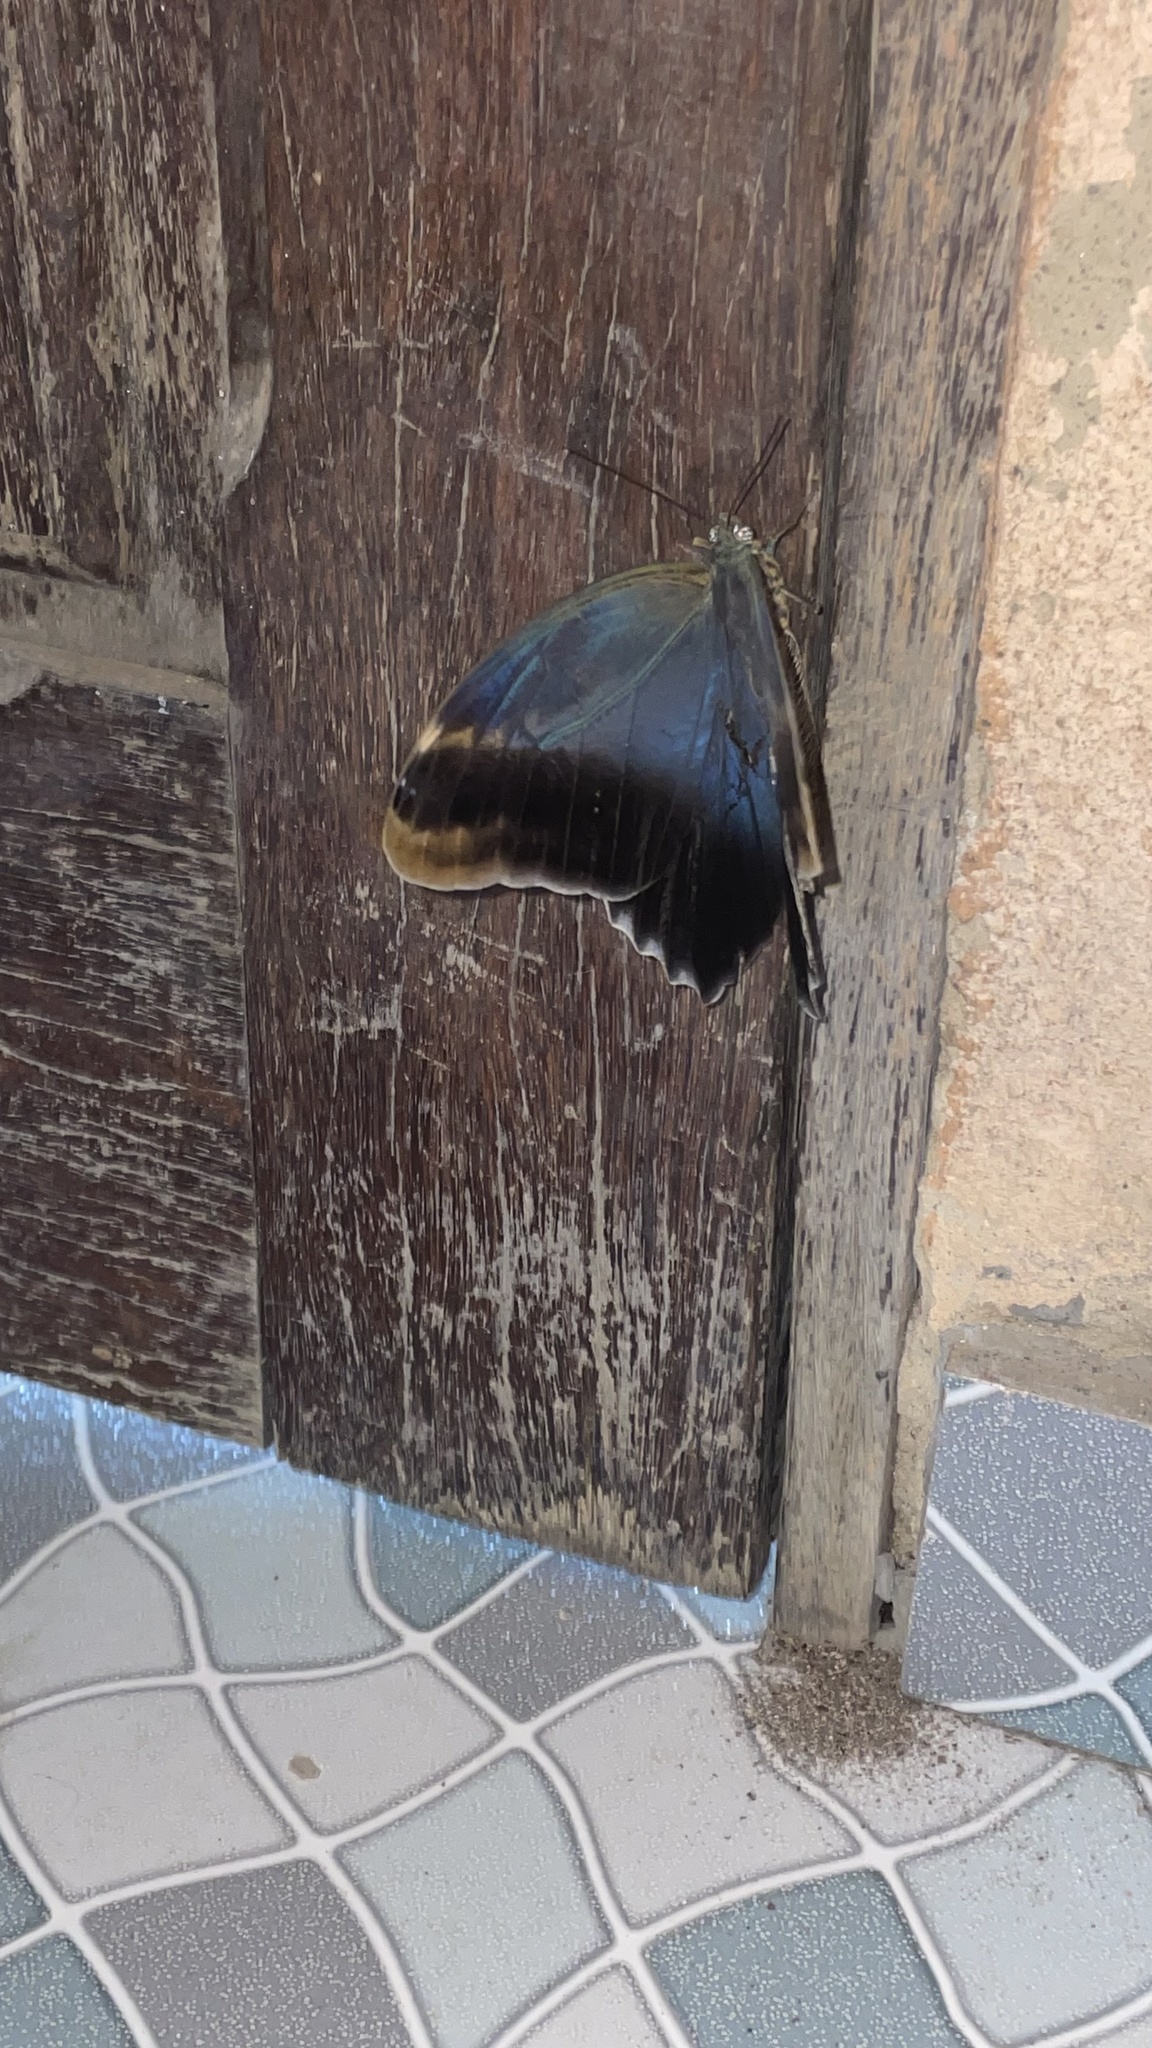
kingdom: Animalia
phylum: Arthropoda
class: Insecta
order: Lepidoptera
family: Nymphalidae
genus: Caligo
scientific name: Caligo brasiliensis
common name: Dark owl-butterfly
